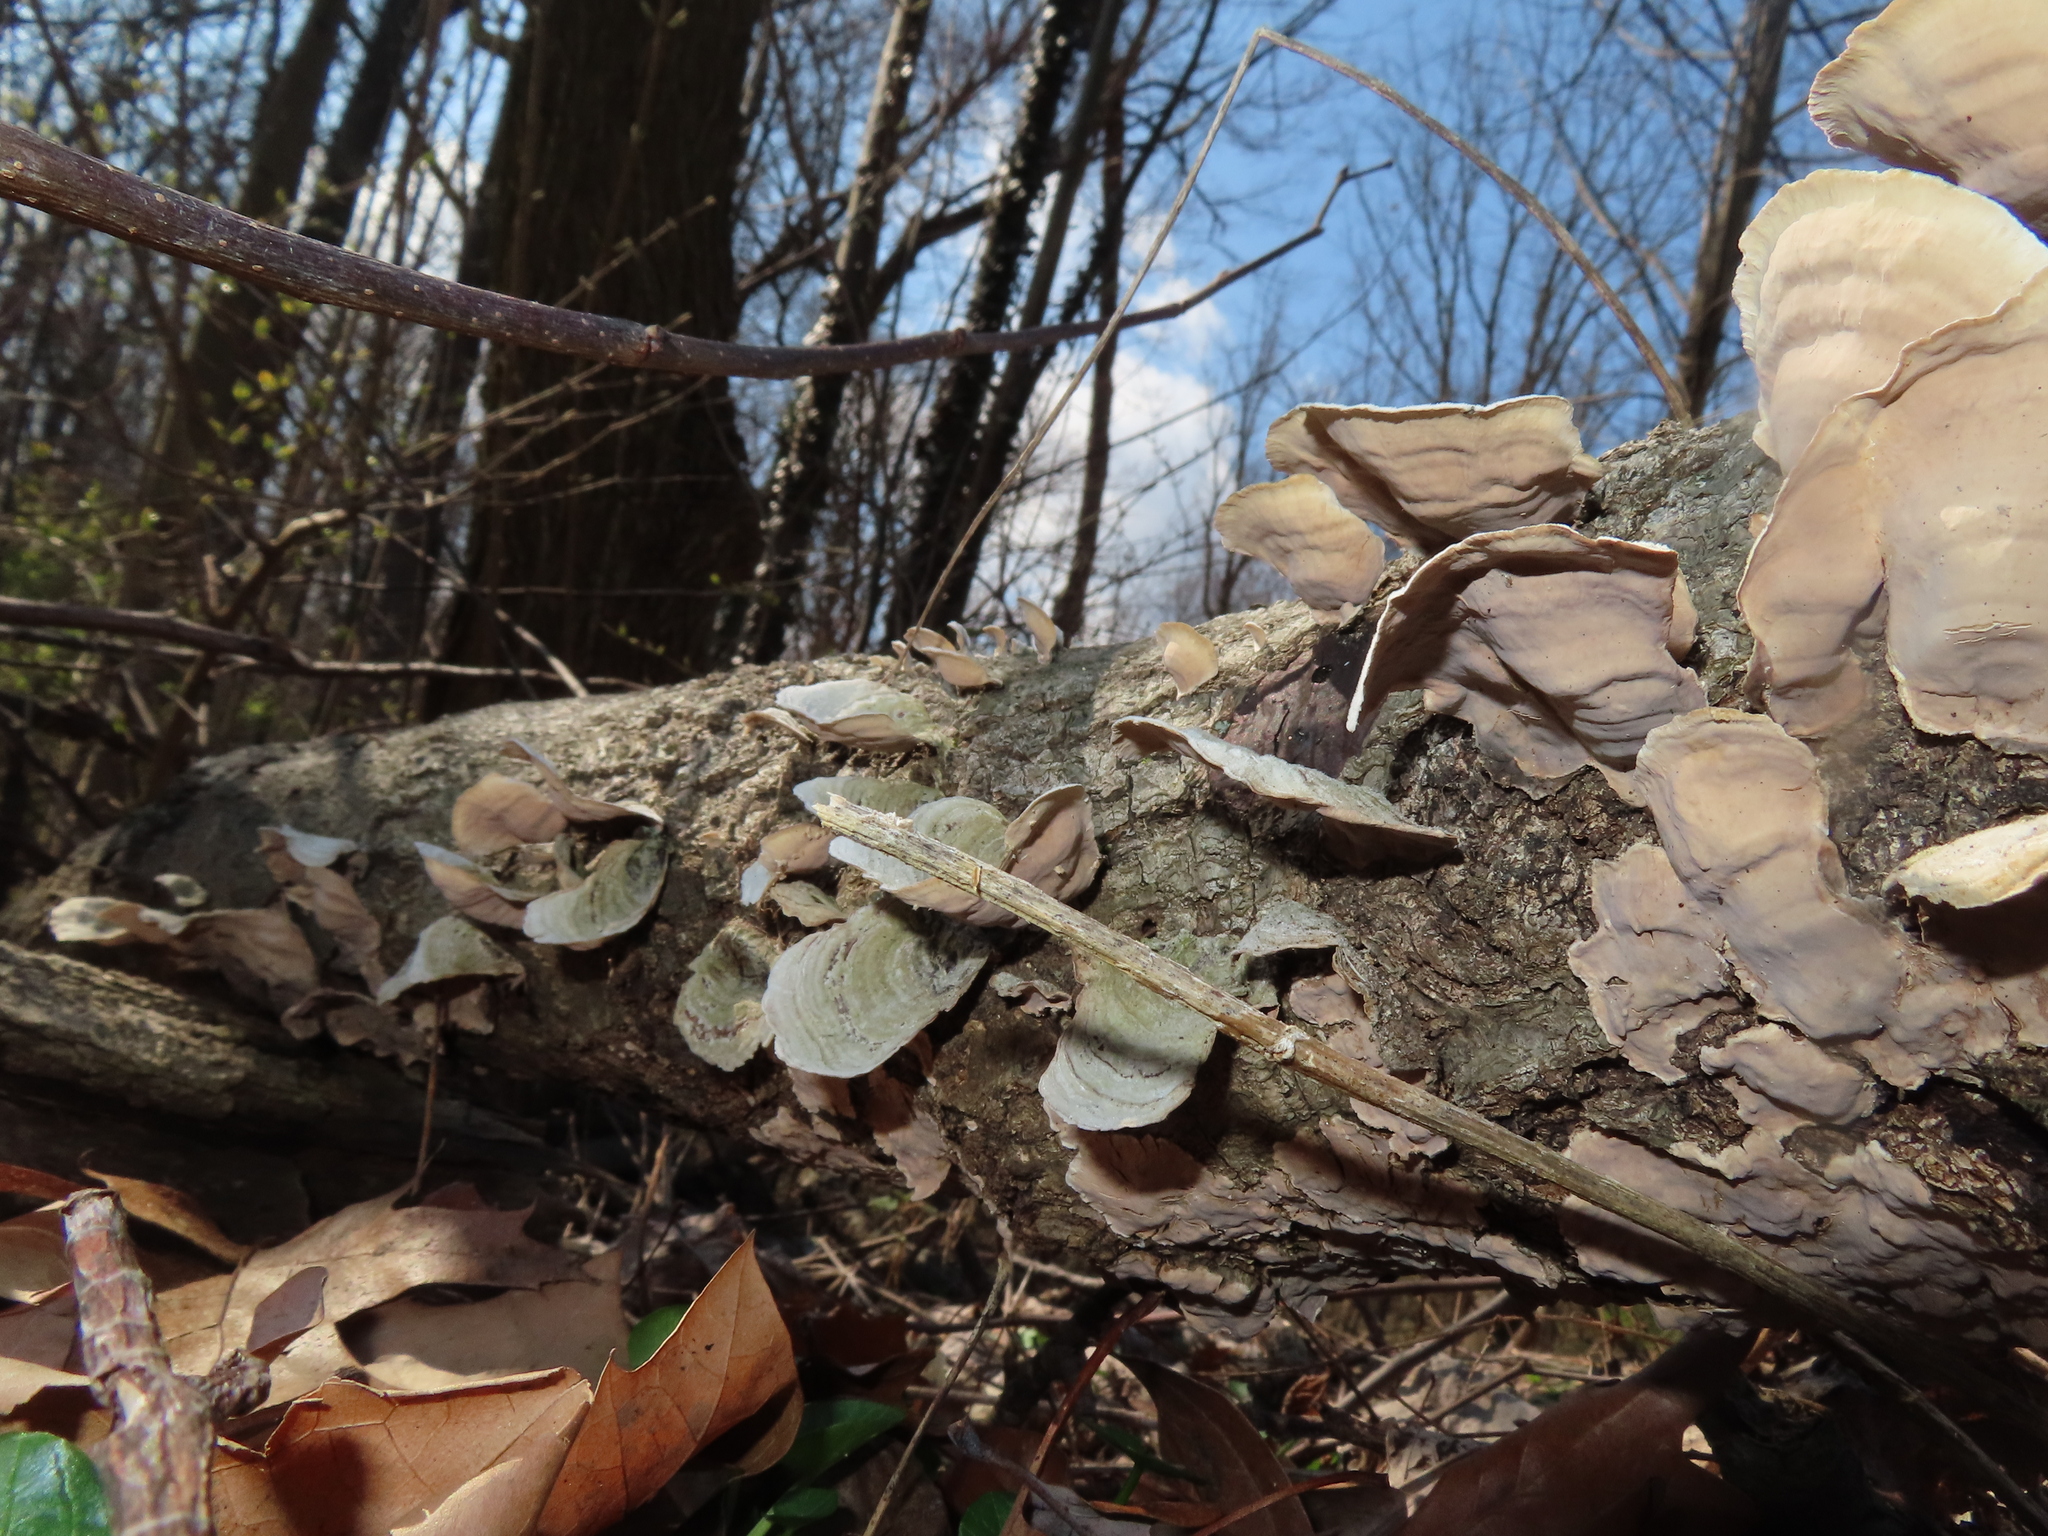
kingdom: Fungi
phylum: Basidiomycota
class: Agaricomycetes
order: Russulales
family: Stereaceae
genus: Stereum
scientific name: Stereum ostrea
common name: False turkeytail
